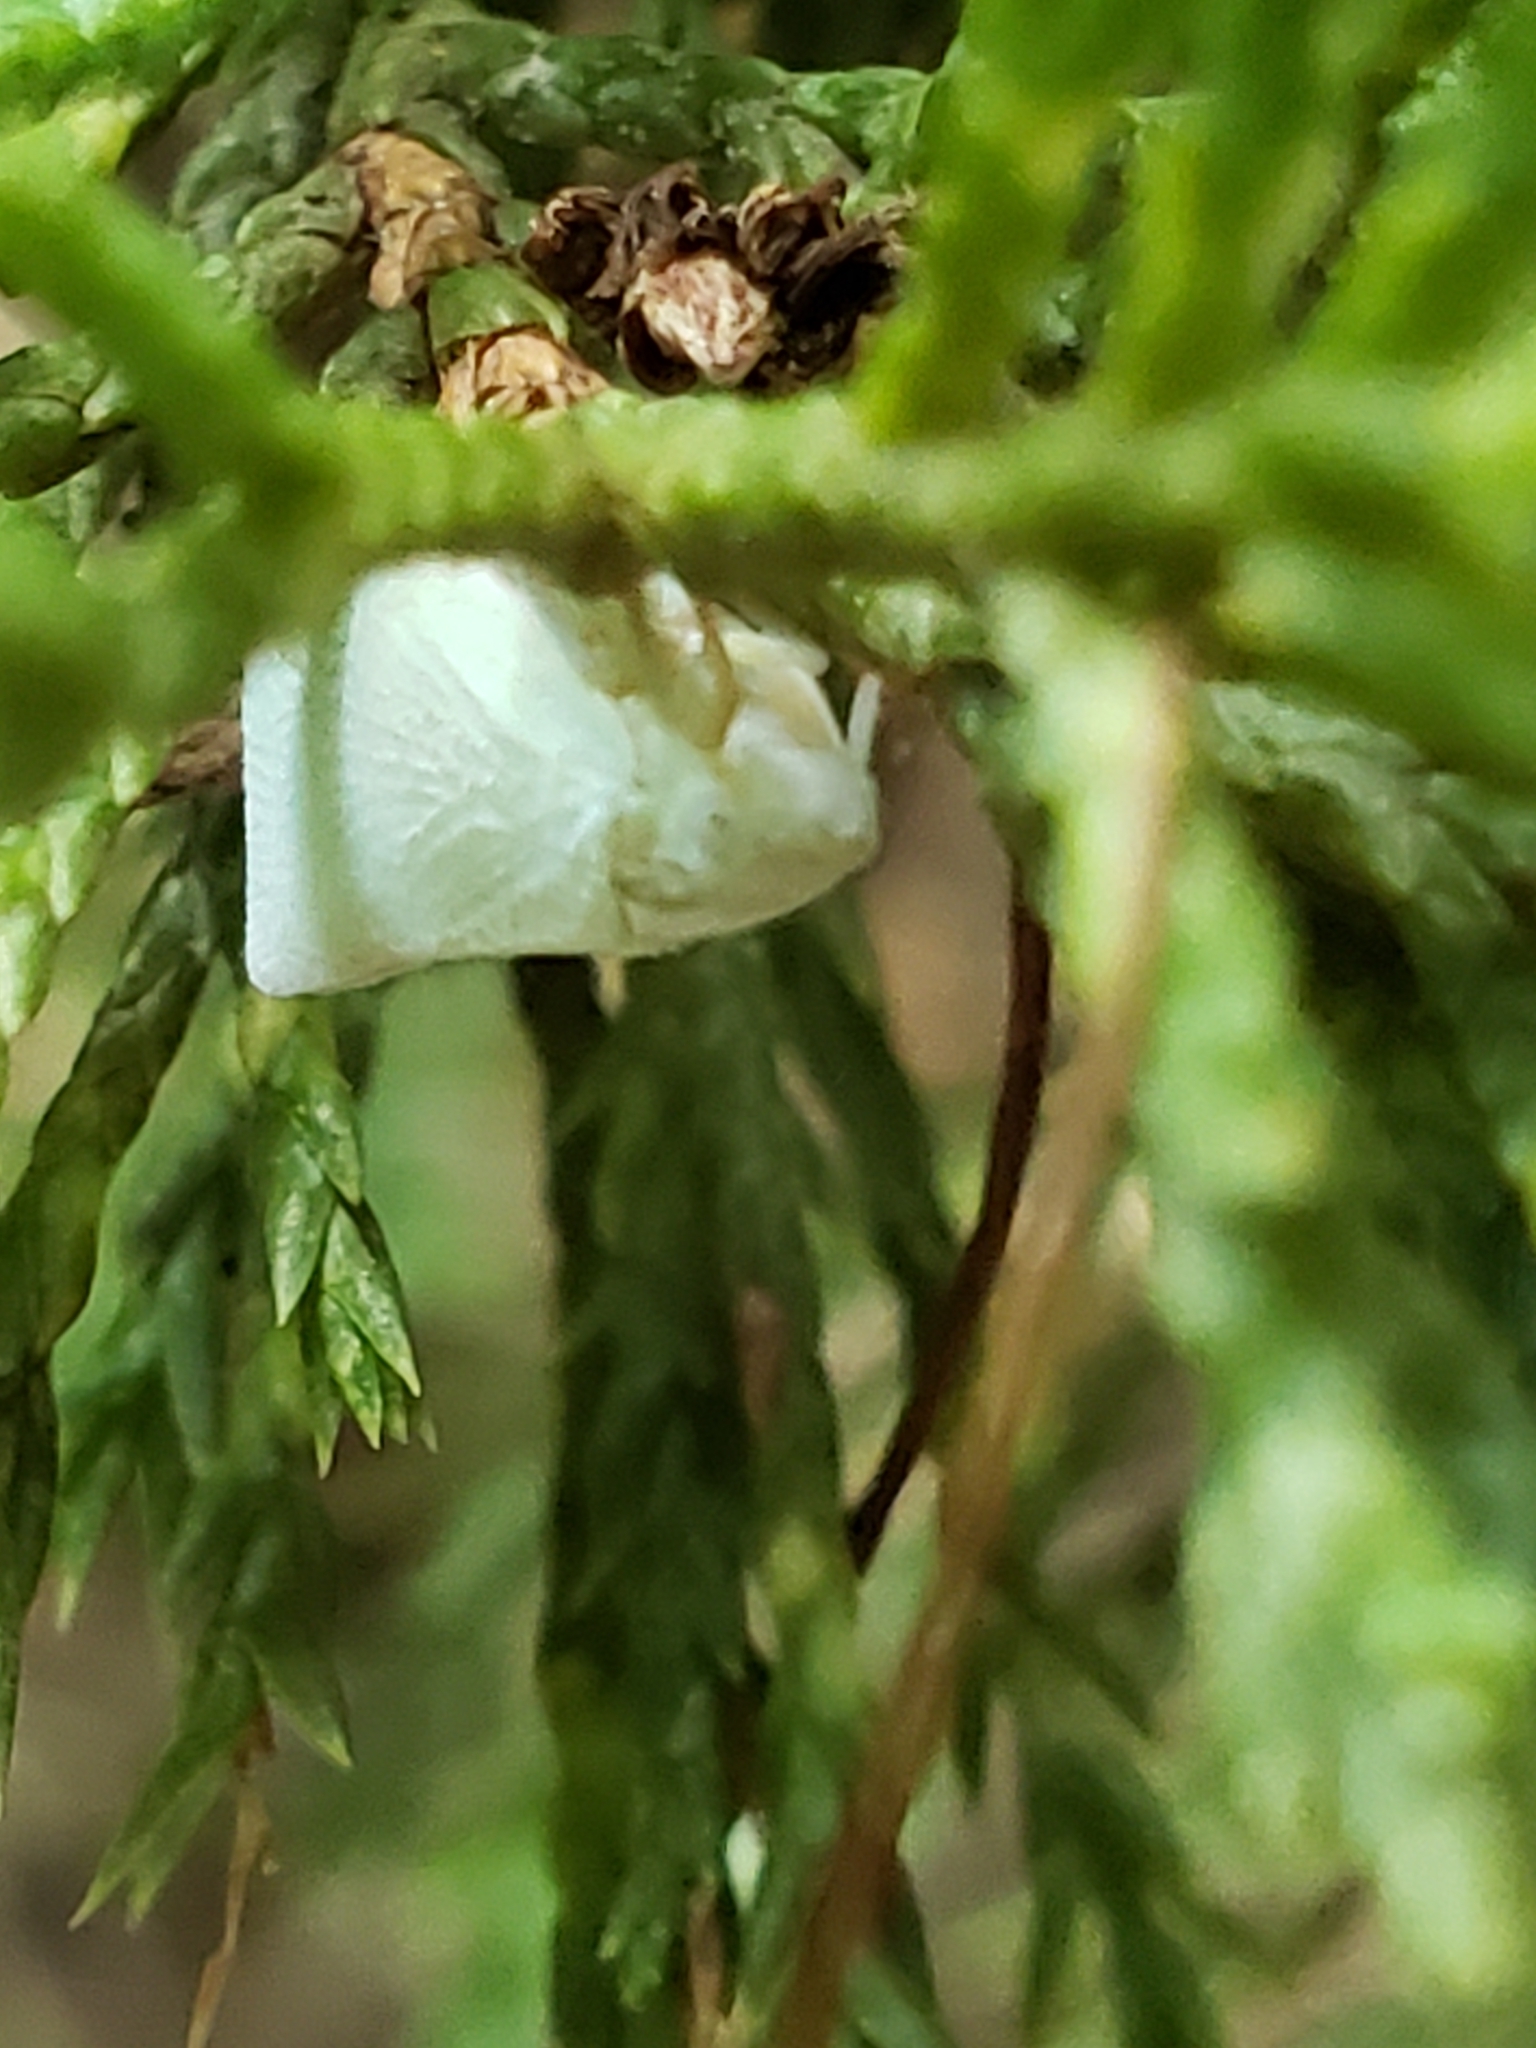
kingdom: Animalia
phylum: Arthropoda
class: Insecta
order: Hemiptera
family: Flatidae
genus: Flatormenis
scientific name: Flatormenis proxima
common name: Northern flatid planthopper
